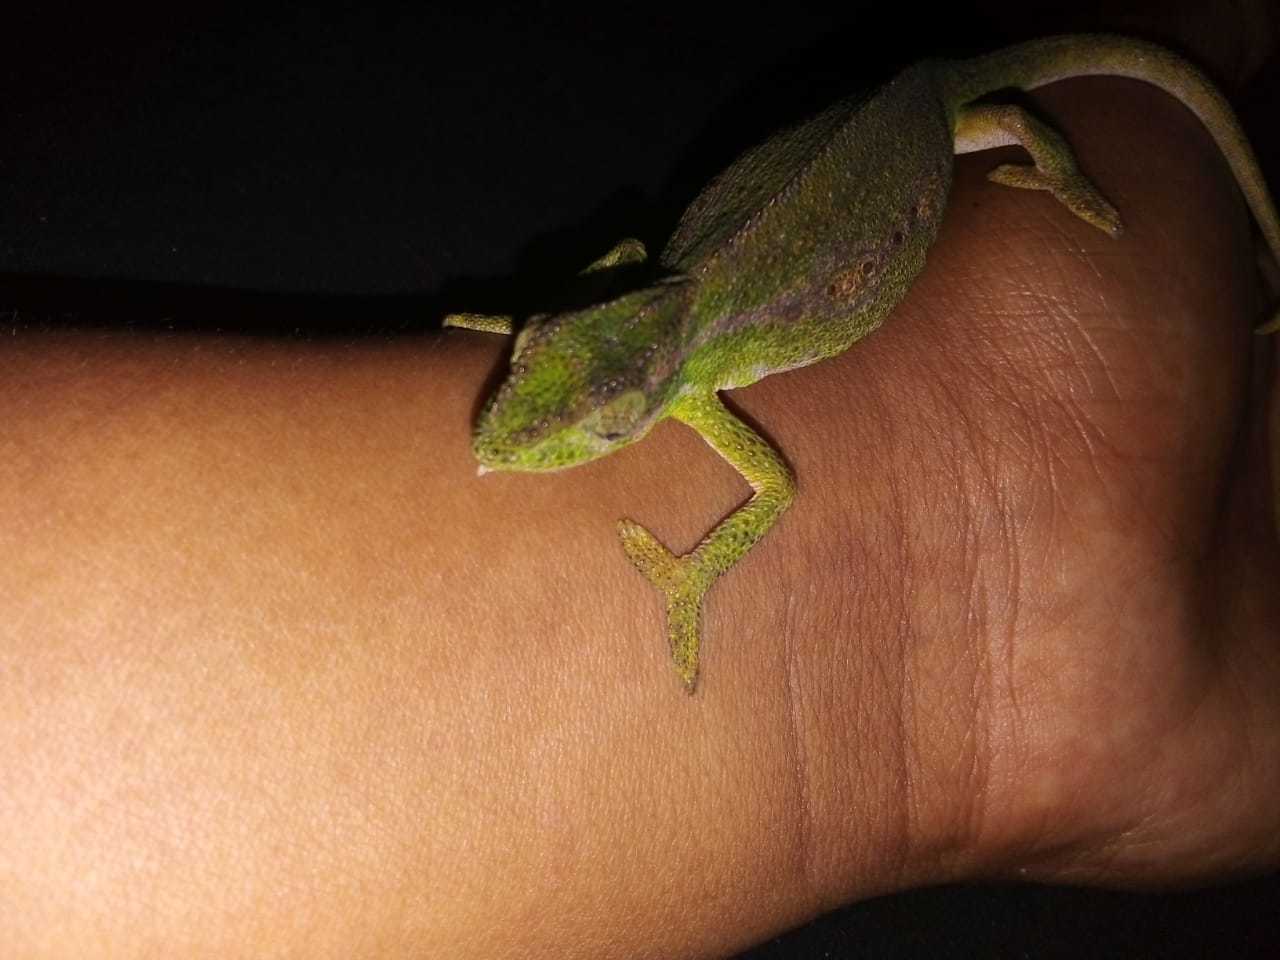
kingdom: Animalia
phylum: Chordata
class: Squamata
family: Chamaeleonidae
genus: Bradypodion
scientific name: Bradypodion pumilum
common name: Cape dwarf chameleon
